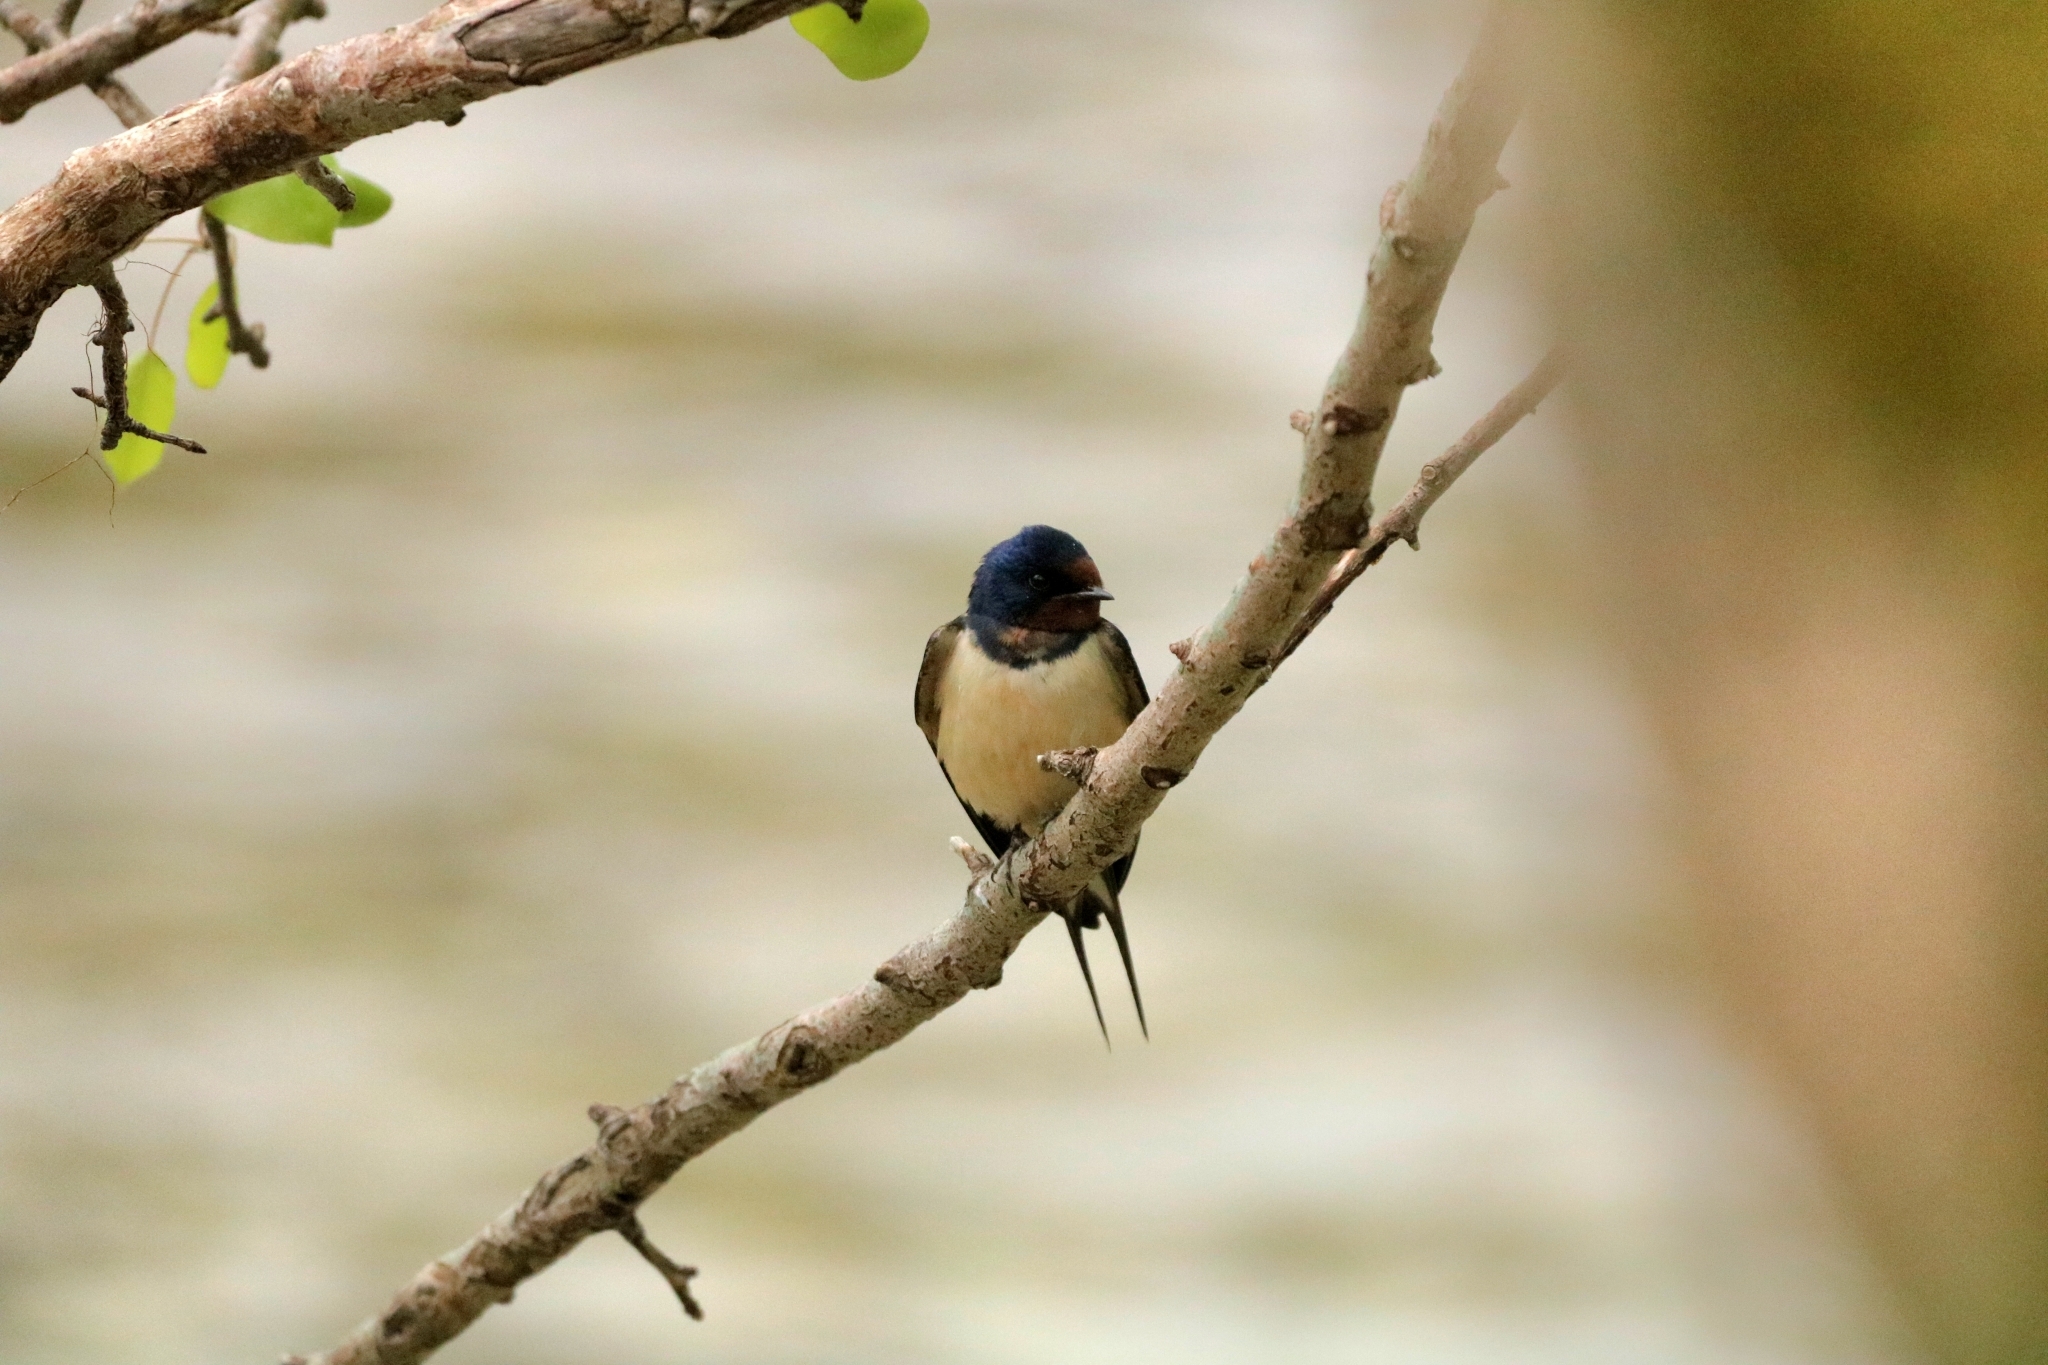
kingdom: Animalia
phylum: Chordata
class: Aves
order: Passeriformes
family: Hirundinidae
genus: Hirundo
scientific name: Hirundo rustica
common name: Barn swallow
